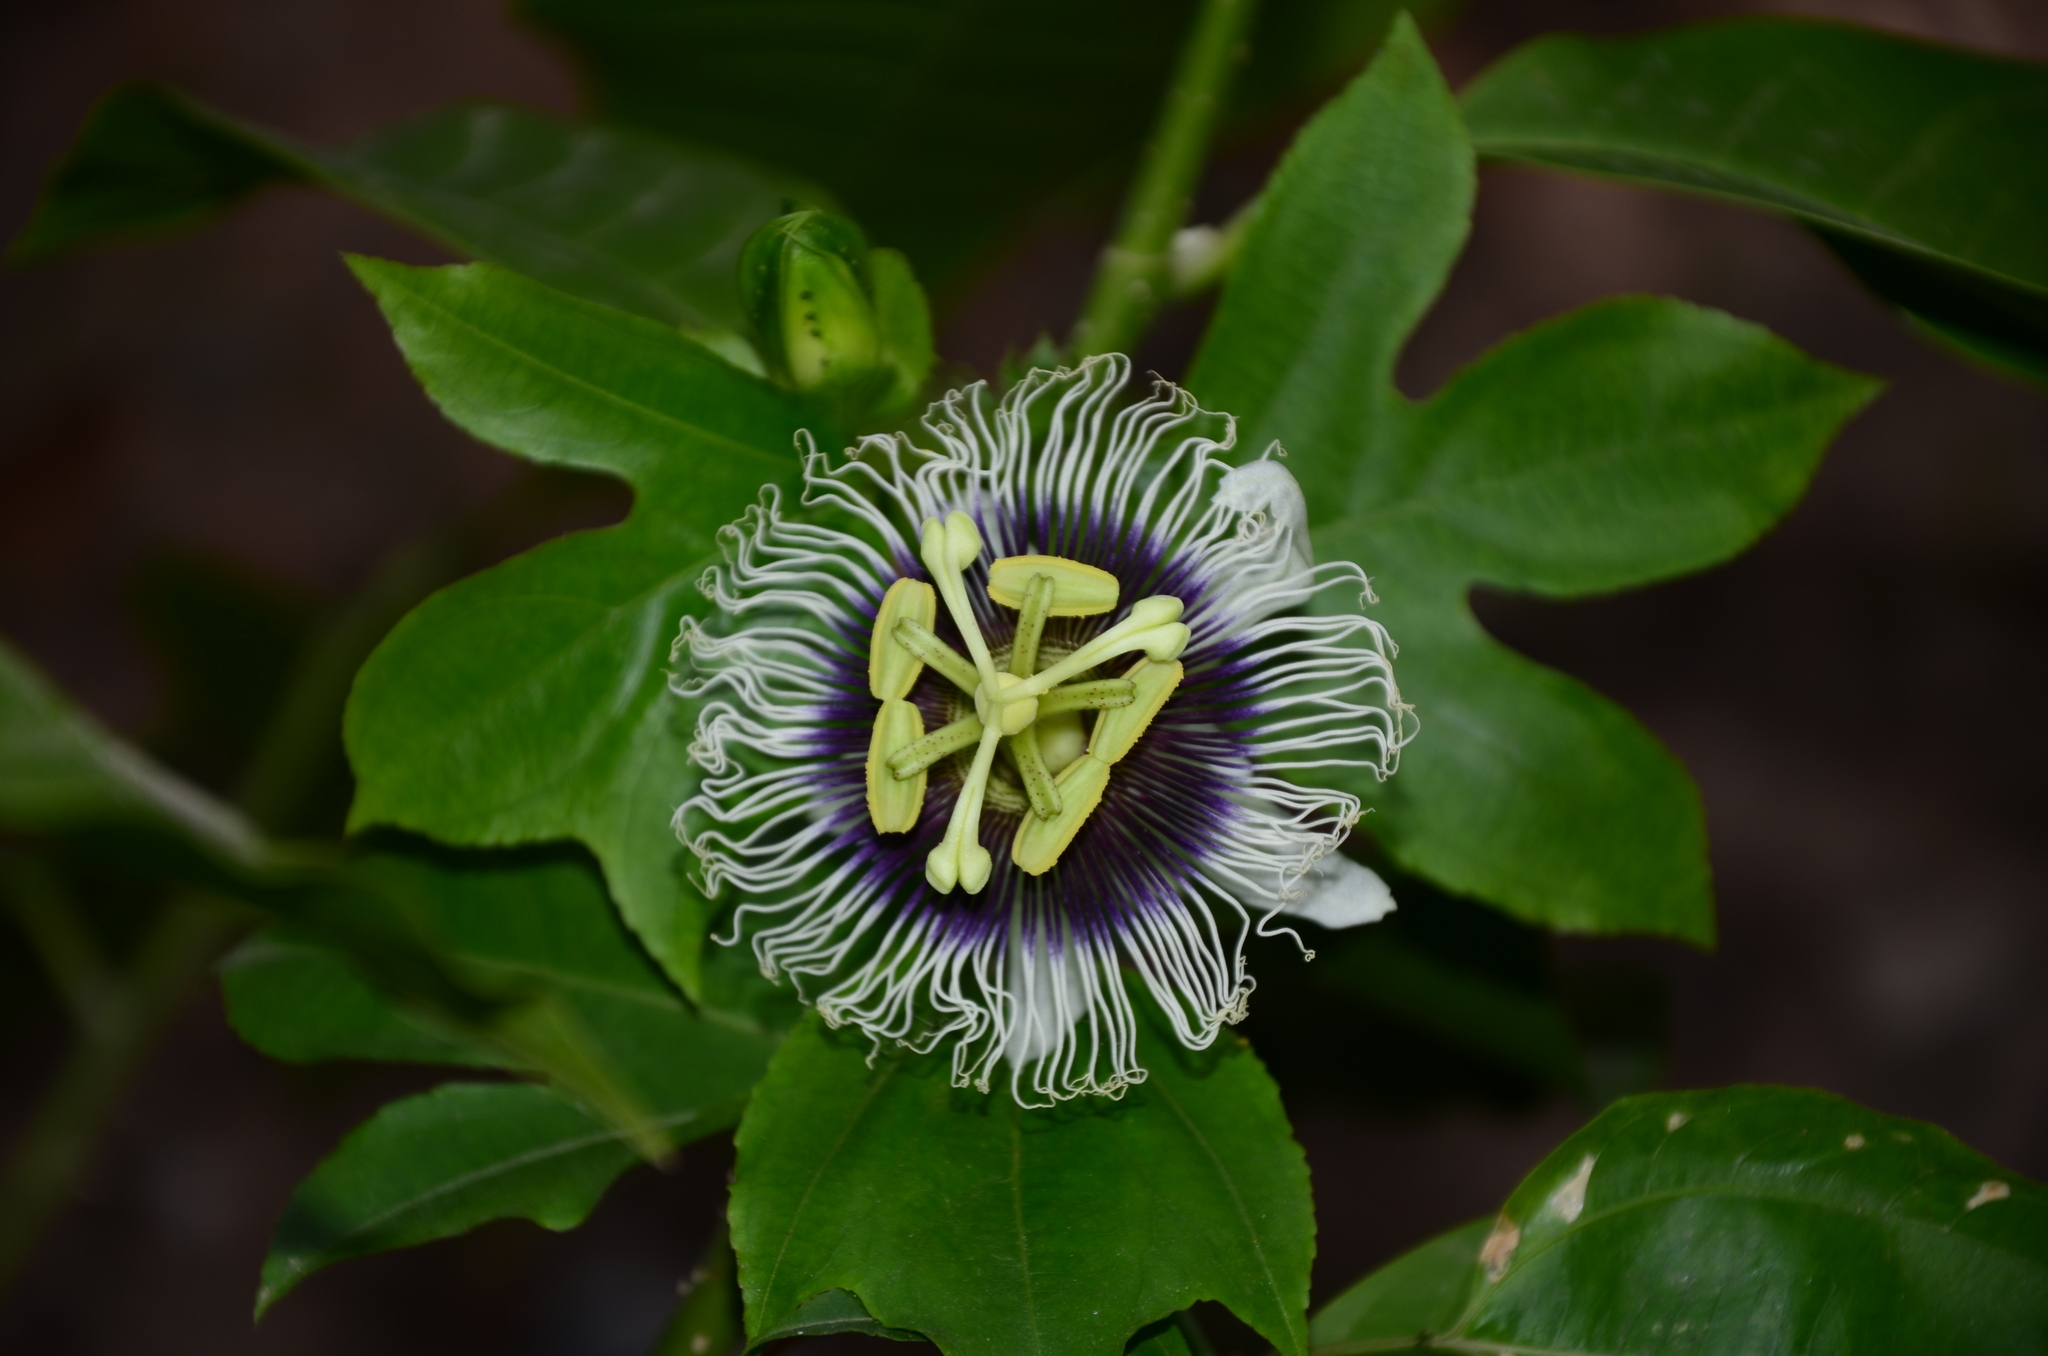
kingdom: Plantae
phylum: Tracheophyta
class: Magnoliopsida
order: Malpighiales
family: Passifloraceae
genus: Passiflora
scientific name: Passiflora edulis
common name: Purple granadilla
